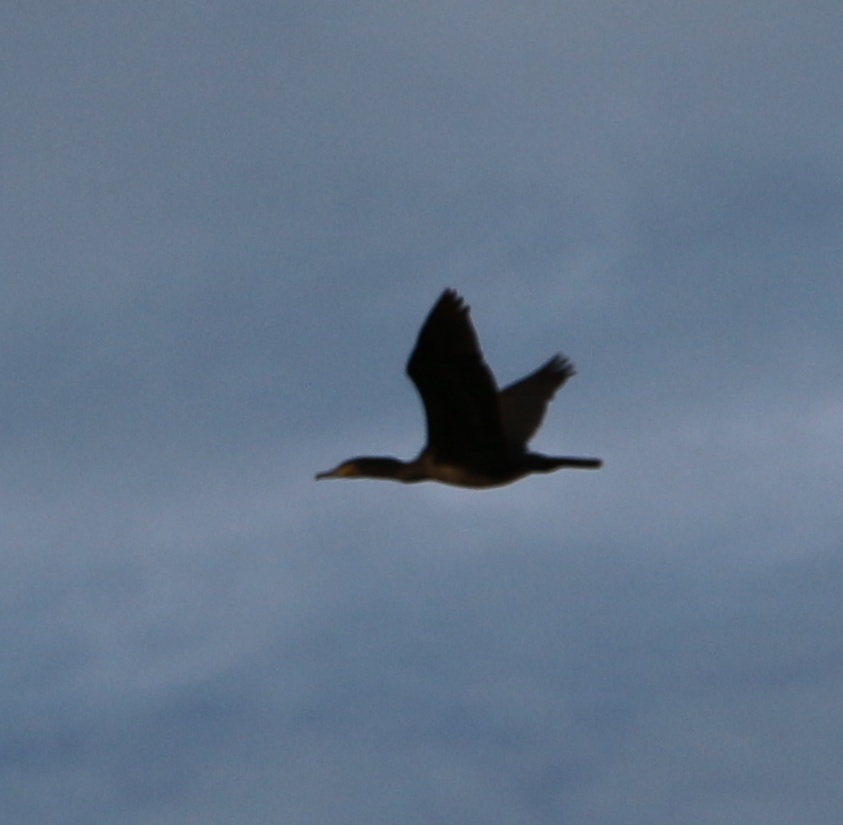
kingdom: Animalia
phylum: Chordata
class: Aves
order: Suliformes
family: Phalacrocoracidae
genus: Phalacrocorax
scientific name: Phalacrocorax carbo
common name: Great cormorant
